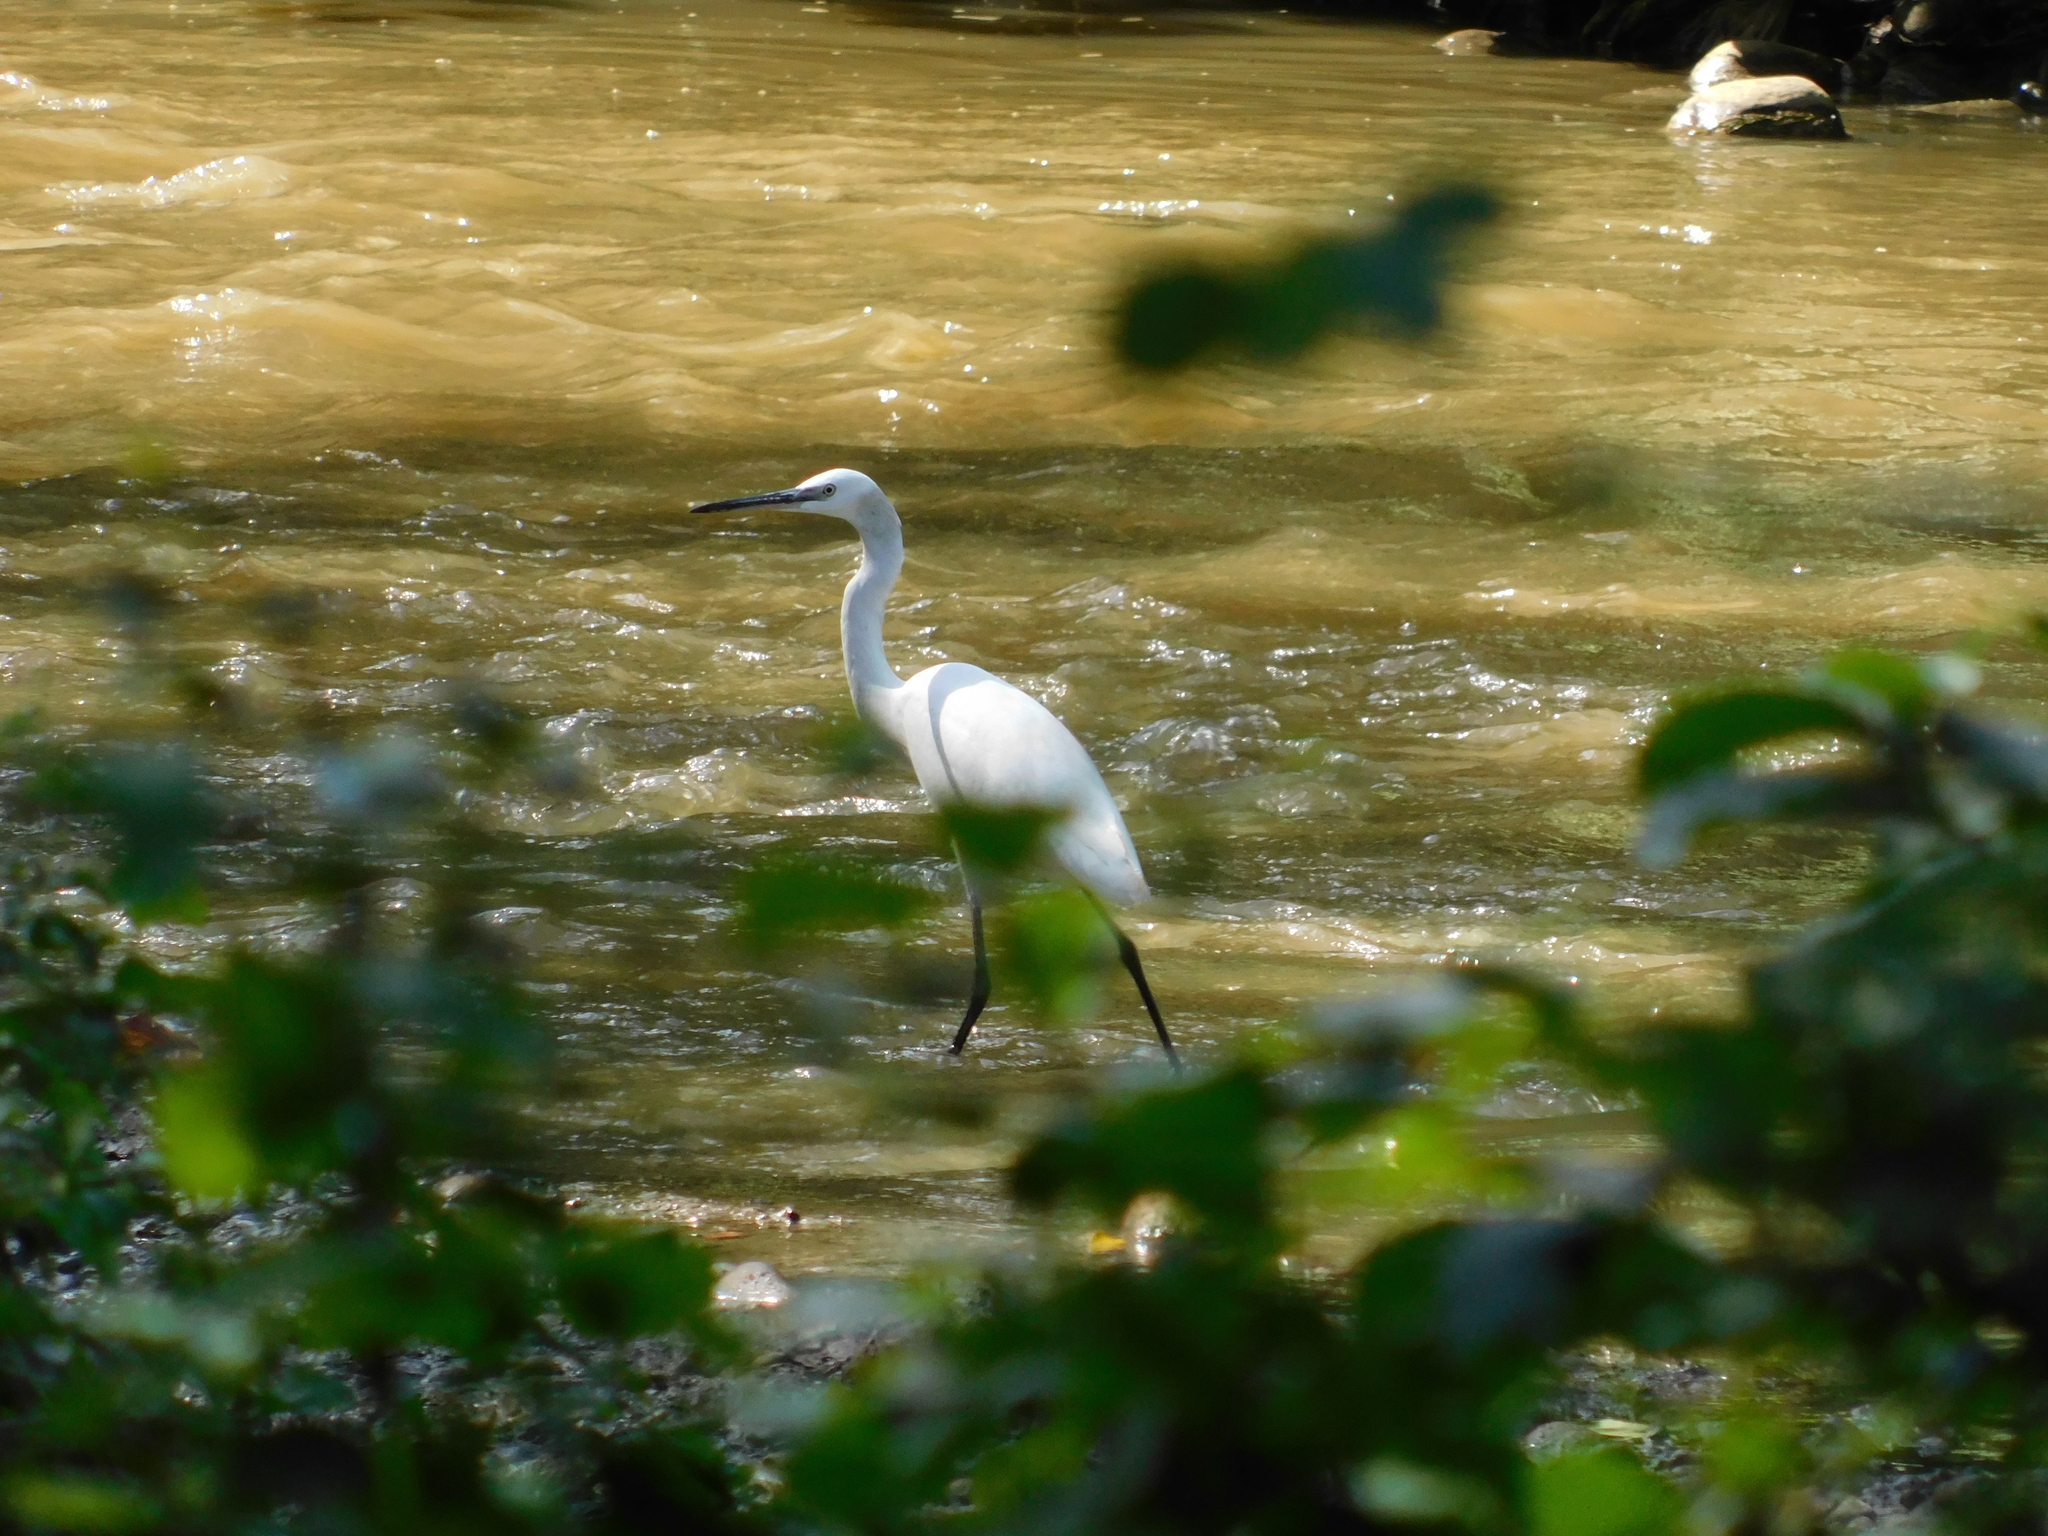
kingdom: Animalia
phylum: Chordata
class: Aves
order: Pelecaniformes
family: Ardeidae
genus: Egretta
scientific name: Egretta garzetta
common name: Little egret
